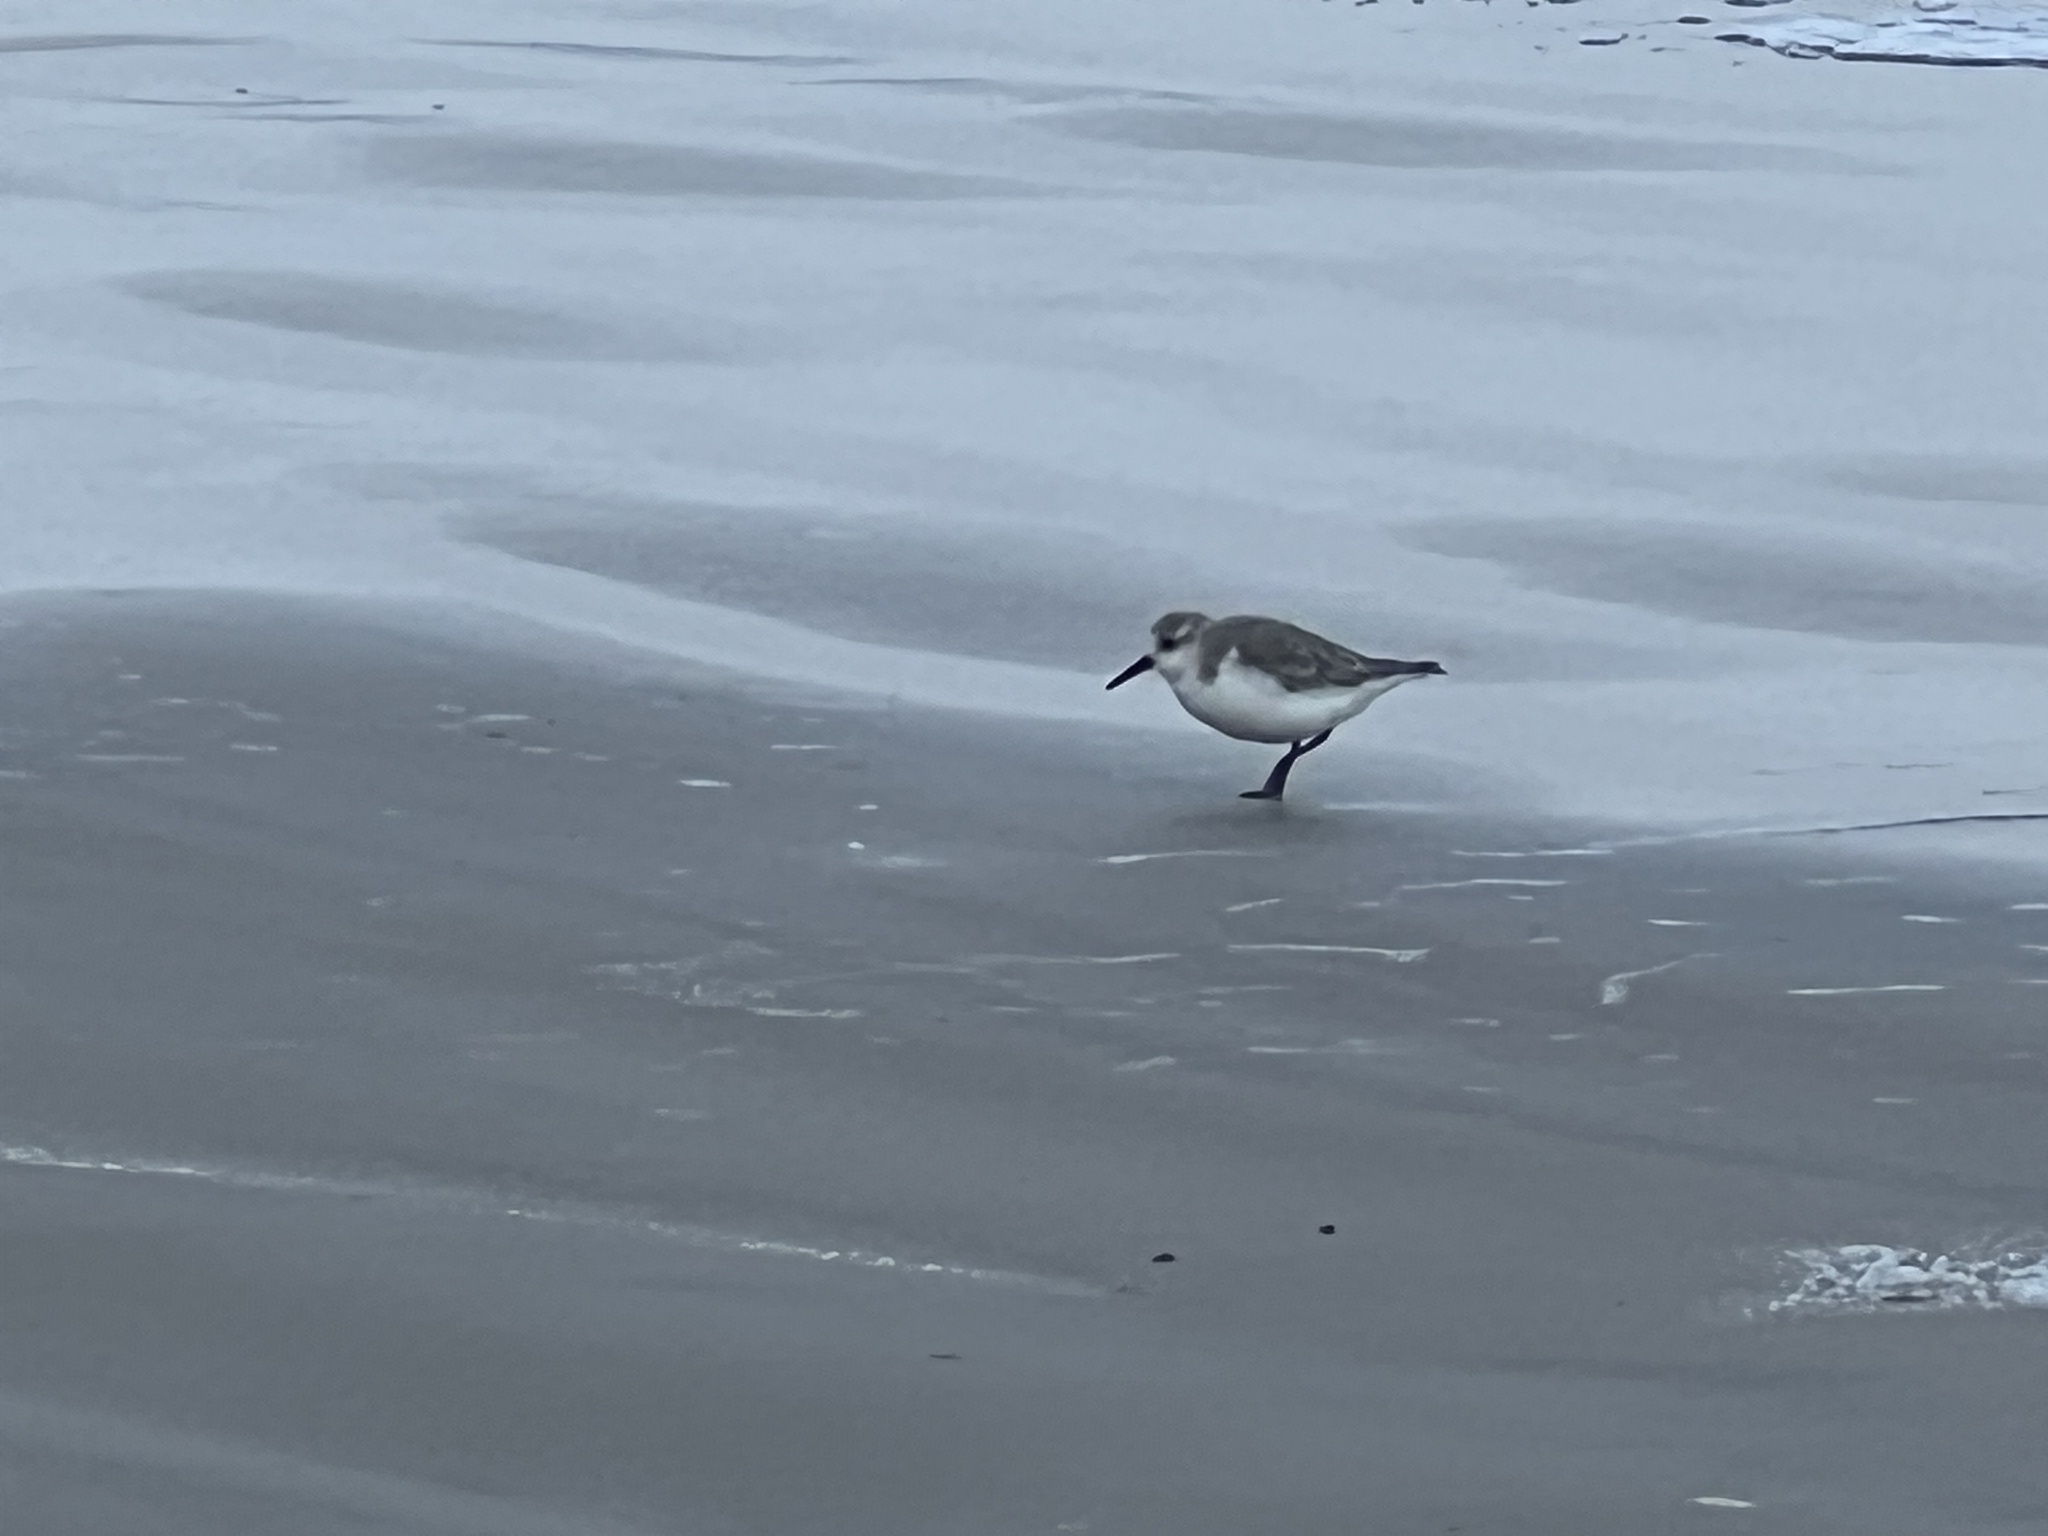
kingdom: Animalia
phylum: Chordata
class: Aves
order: Charadriiformes
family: Scolopacidae
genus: Calidris
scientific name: Calidris alba
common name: Sanderling
